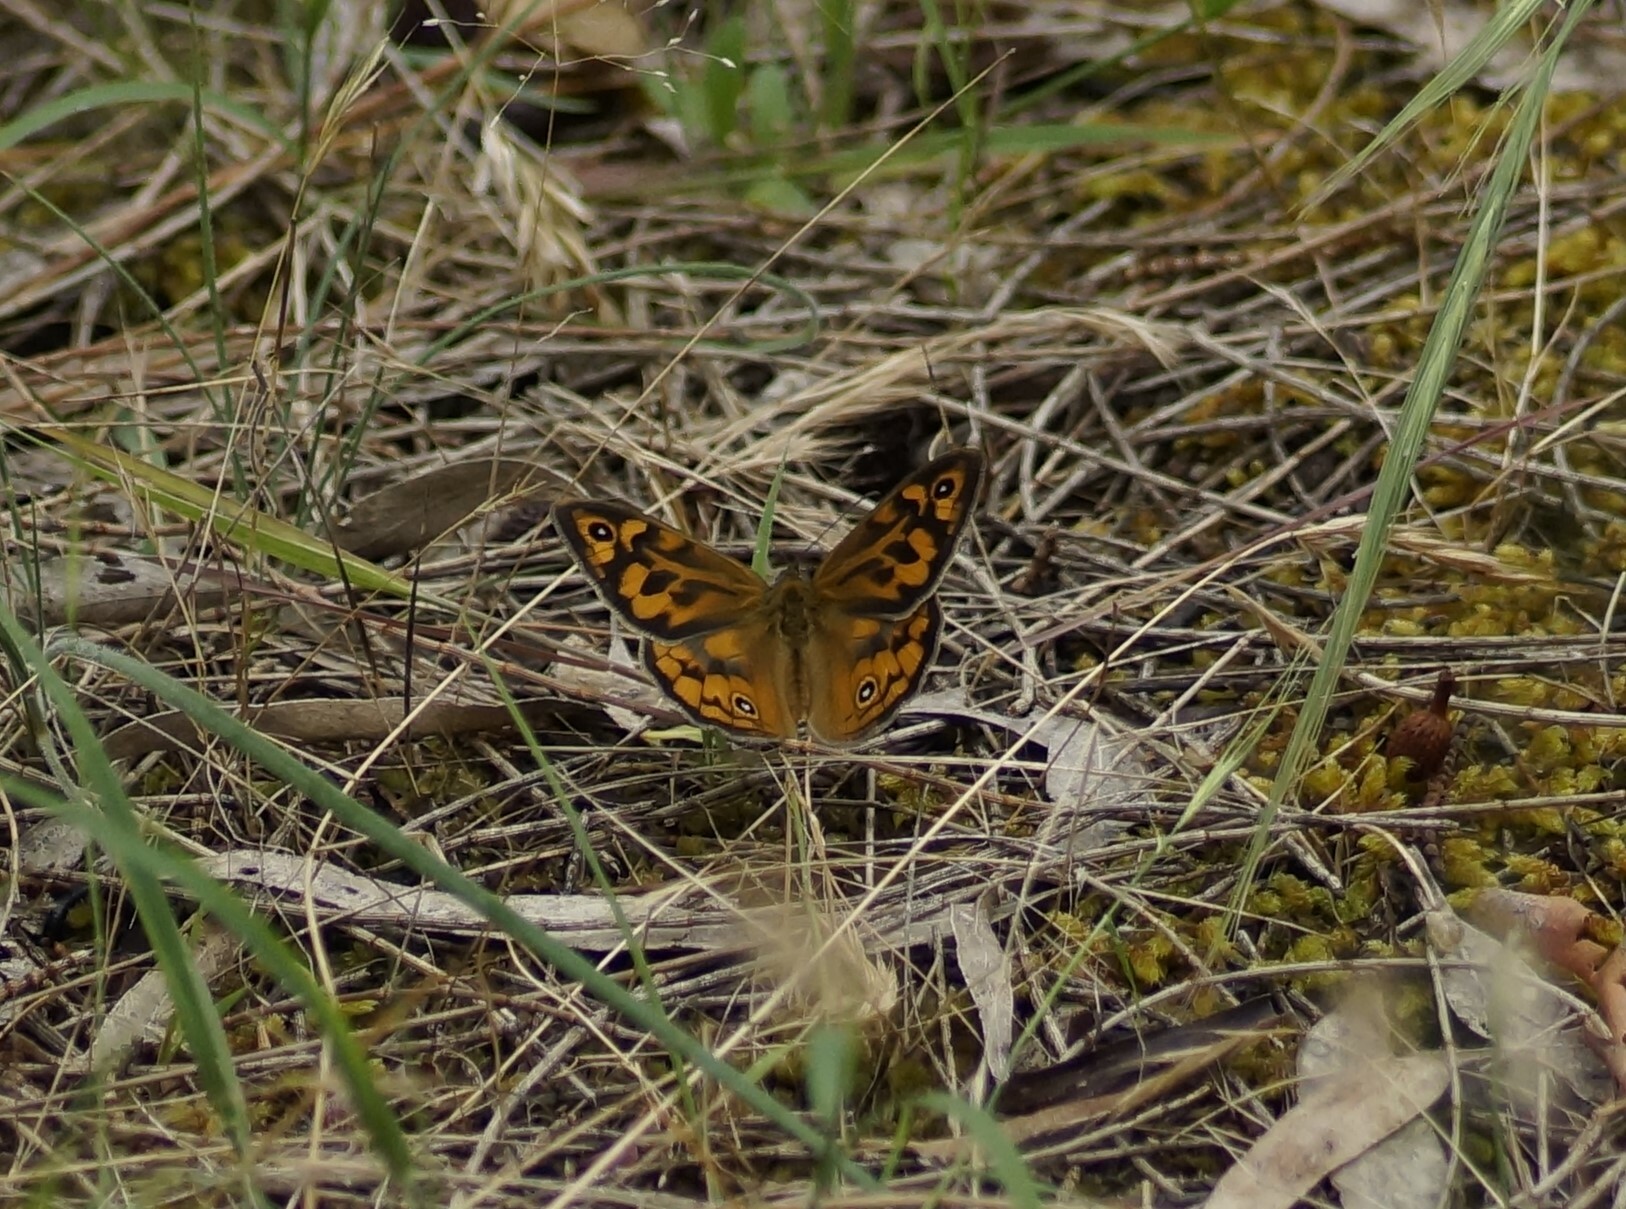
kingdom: Animalia
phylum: Arthropoda
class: Insecta
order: Lepidoptera
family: Nymphalidae
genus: Heteronympha
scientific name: Heteronympha merope
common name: Common brown
